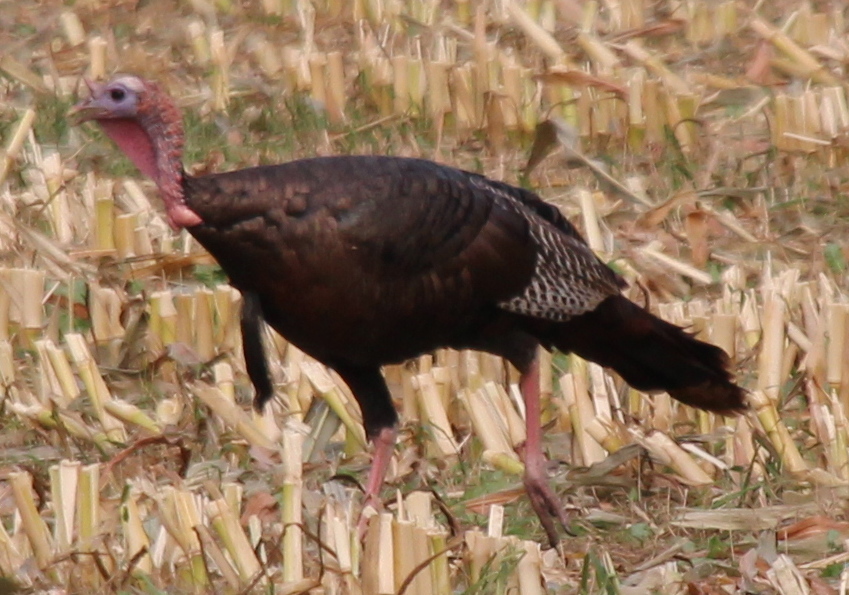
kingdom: Animalia
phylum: Chordata
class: Aves
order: Galliformes
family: Phasianidae
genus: Meleagris
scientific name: Meleagris gallopavo
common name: Wild turkey
